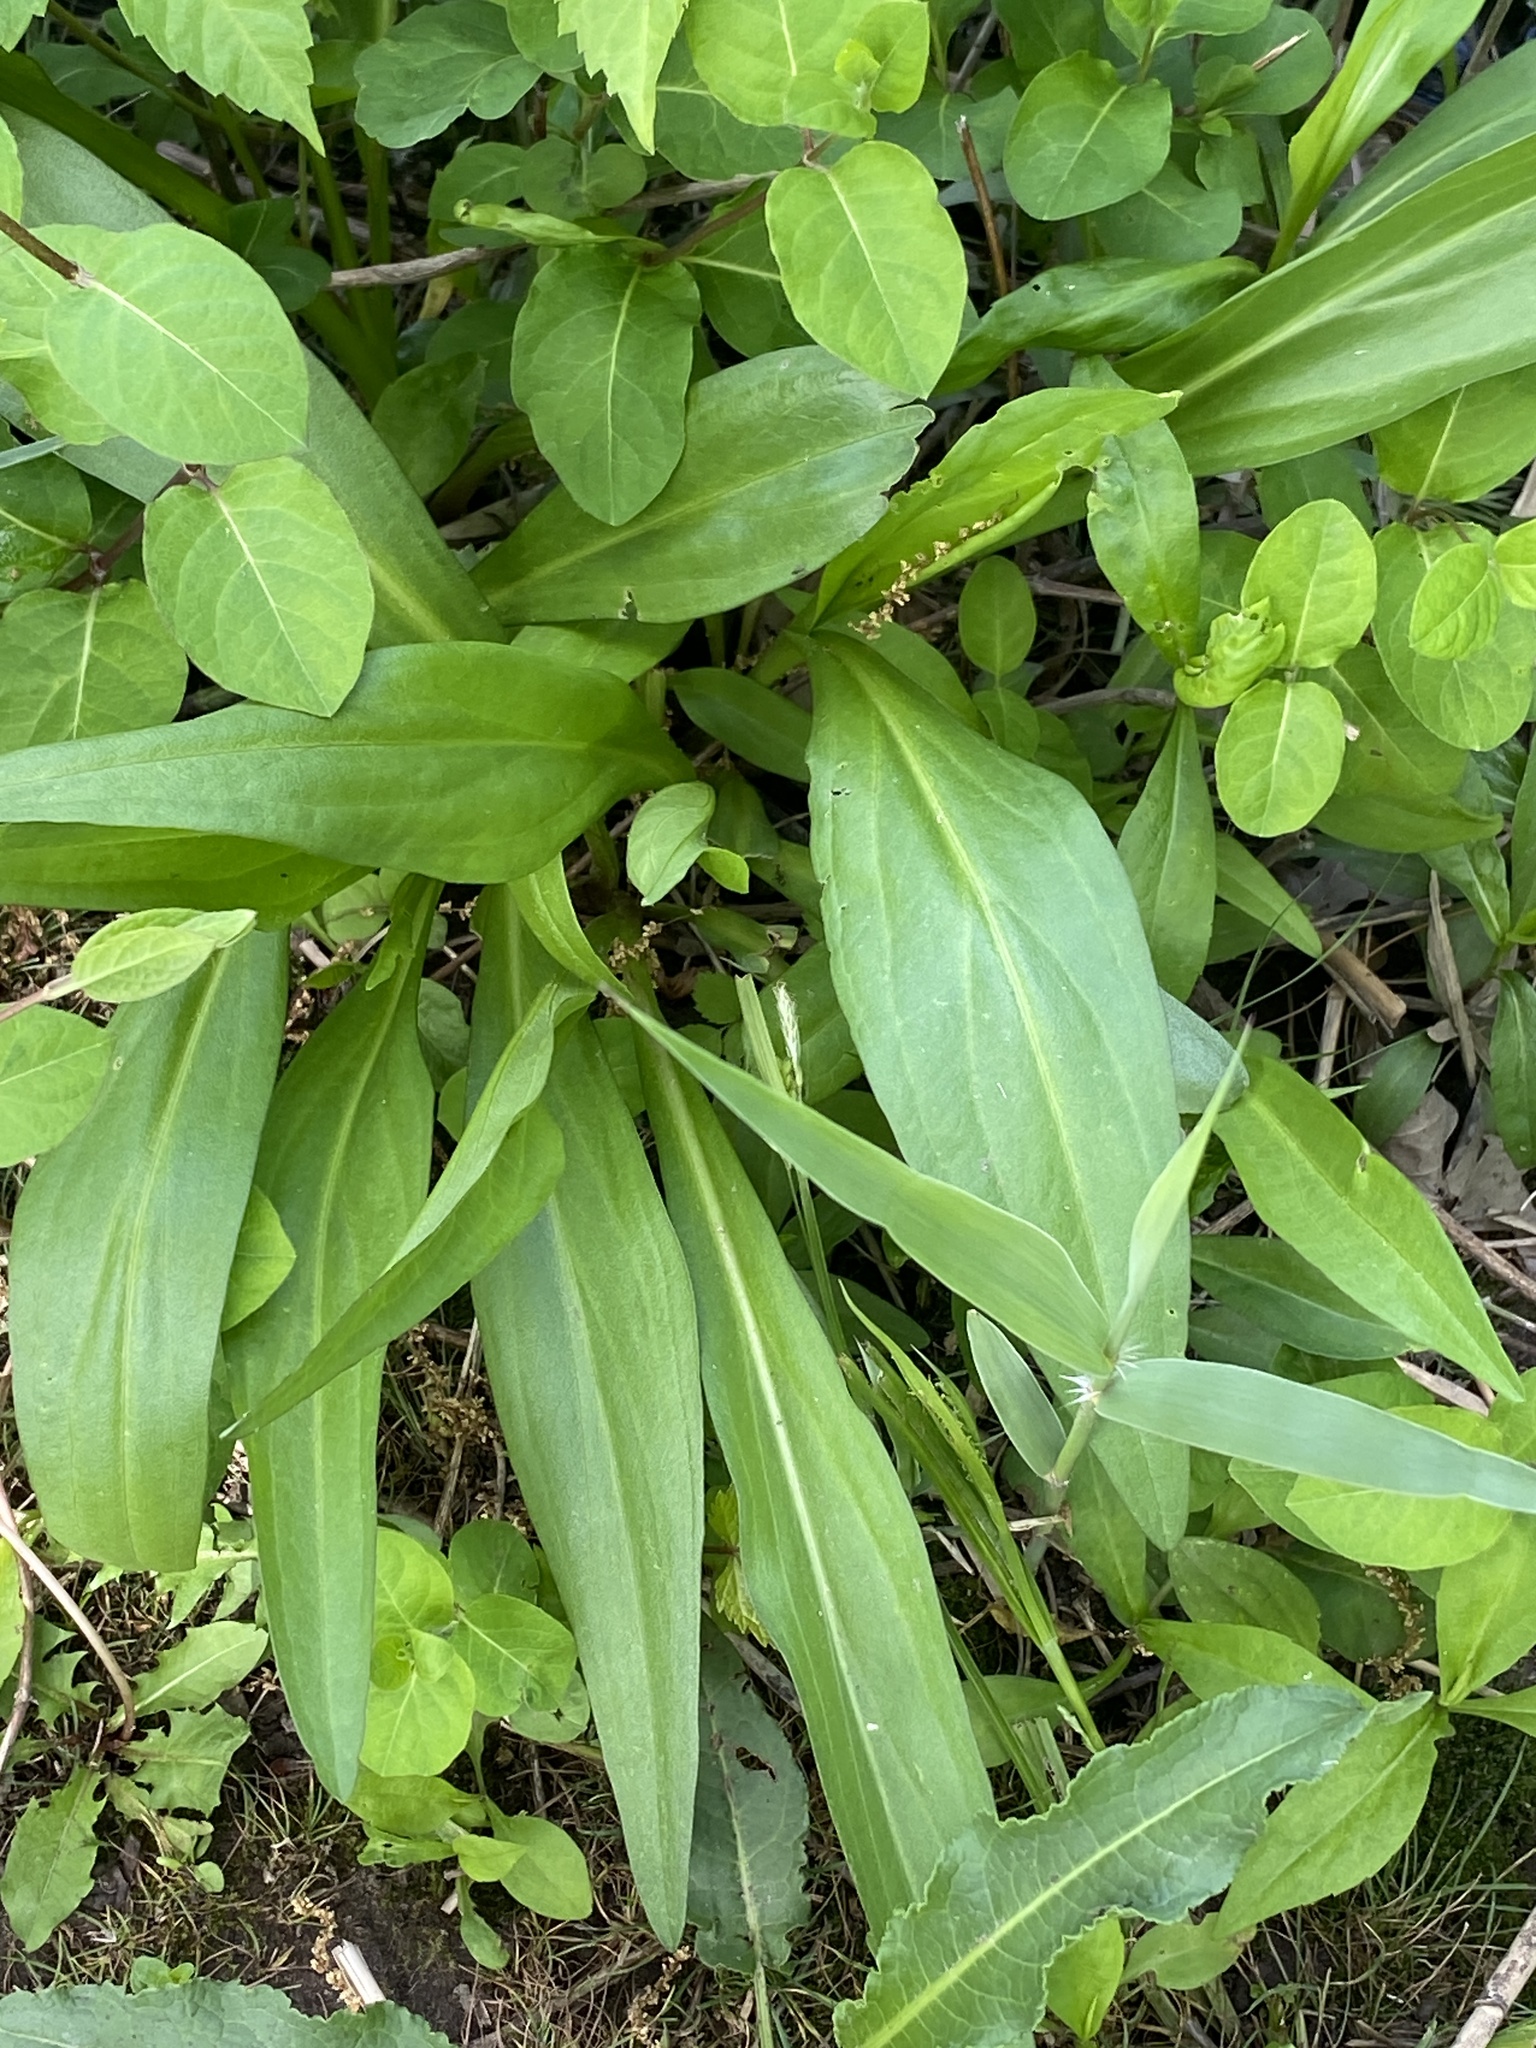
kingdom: Plantae
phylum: Tracheophyta
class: Magnoliopsida
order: Asterales
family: Asteraceae
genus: Solidago
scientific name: Solidago sempervirens
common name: Salt-marsh goldenrod
